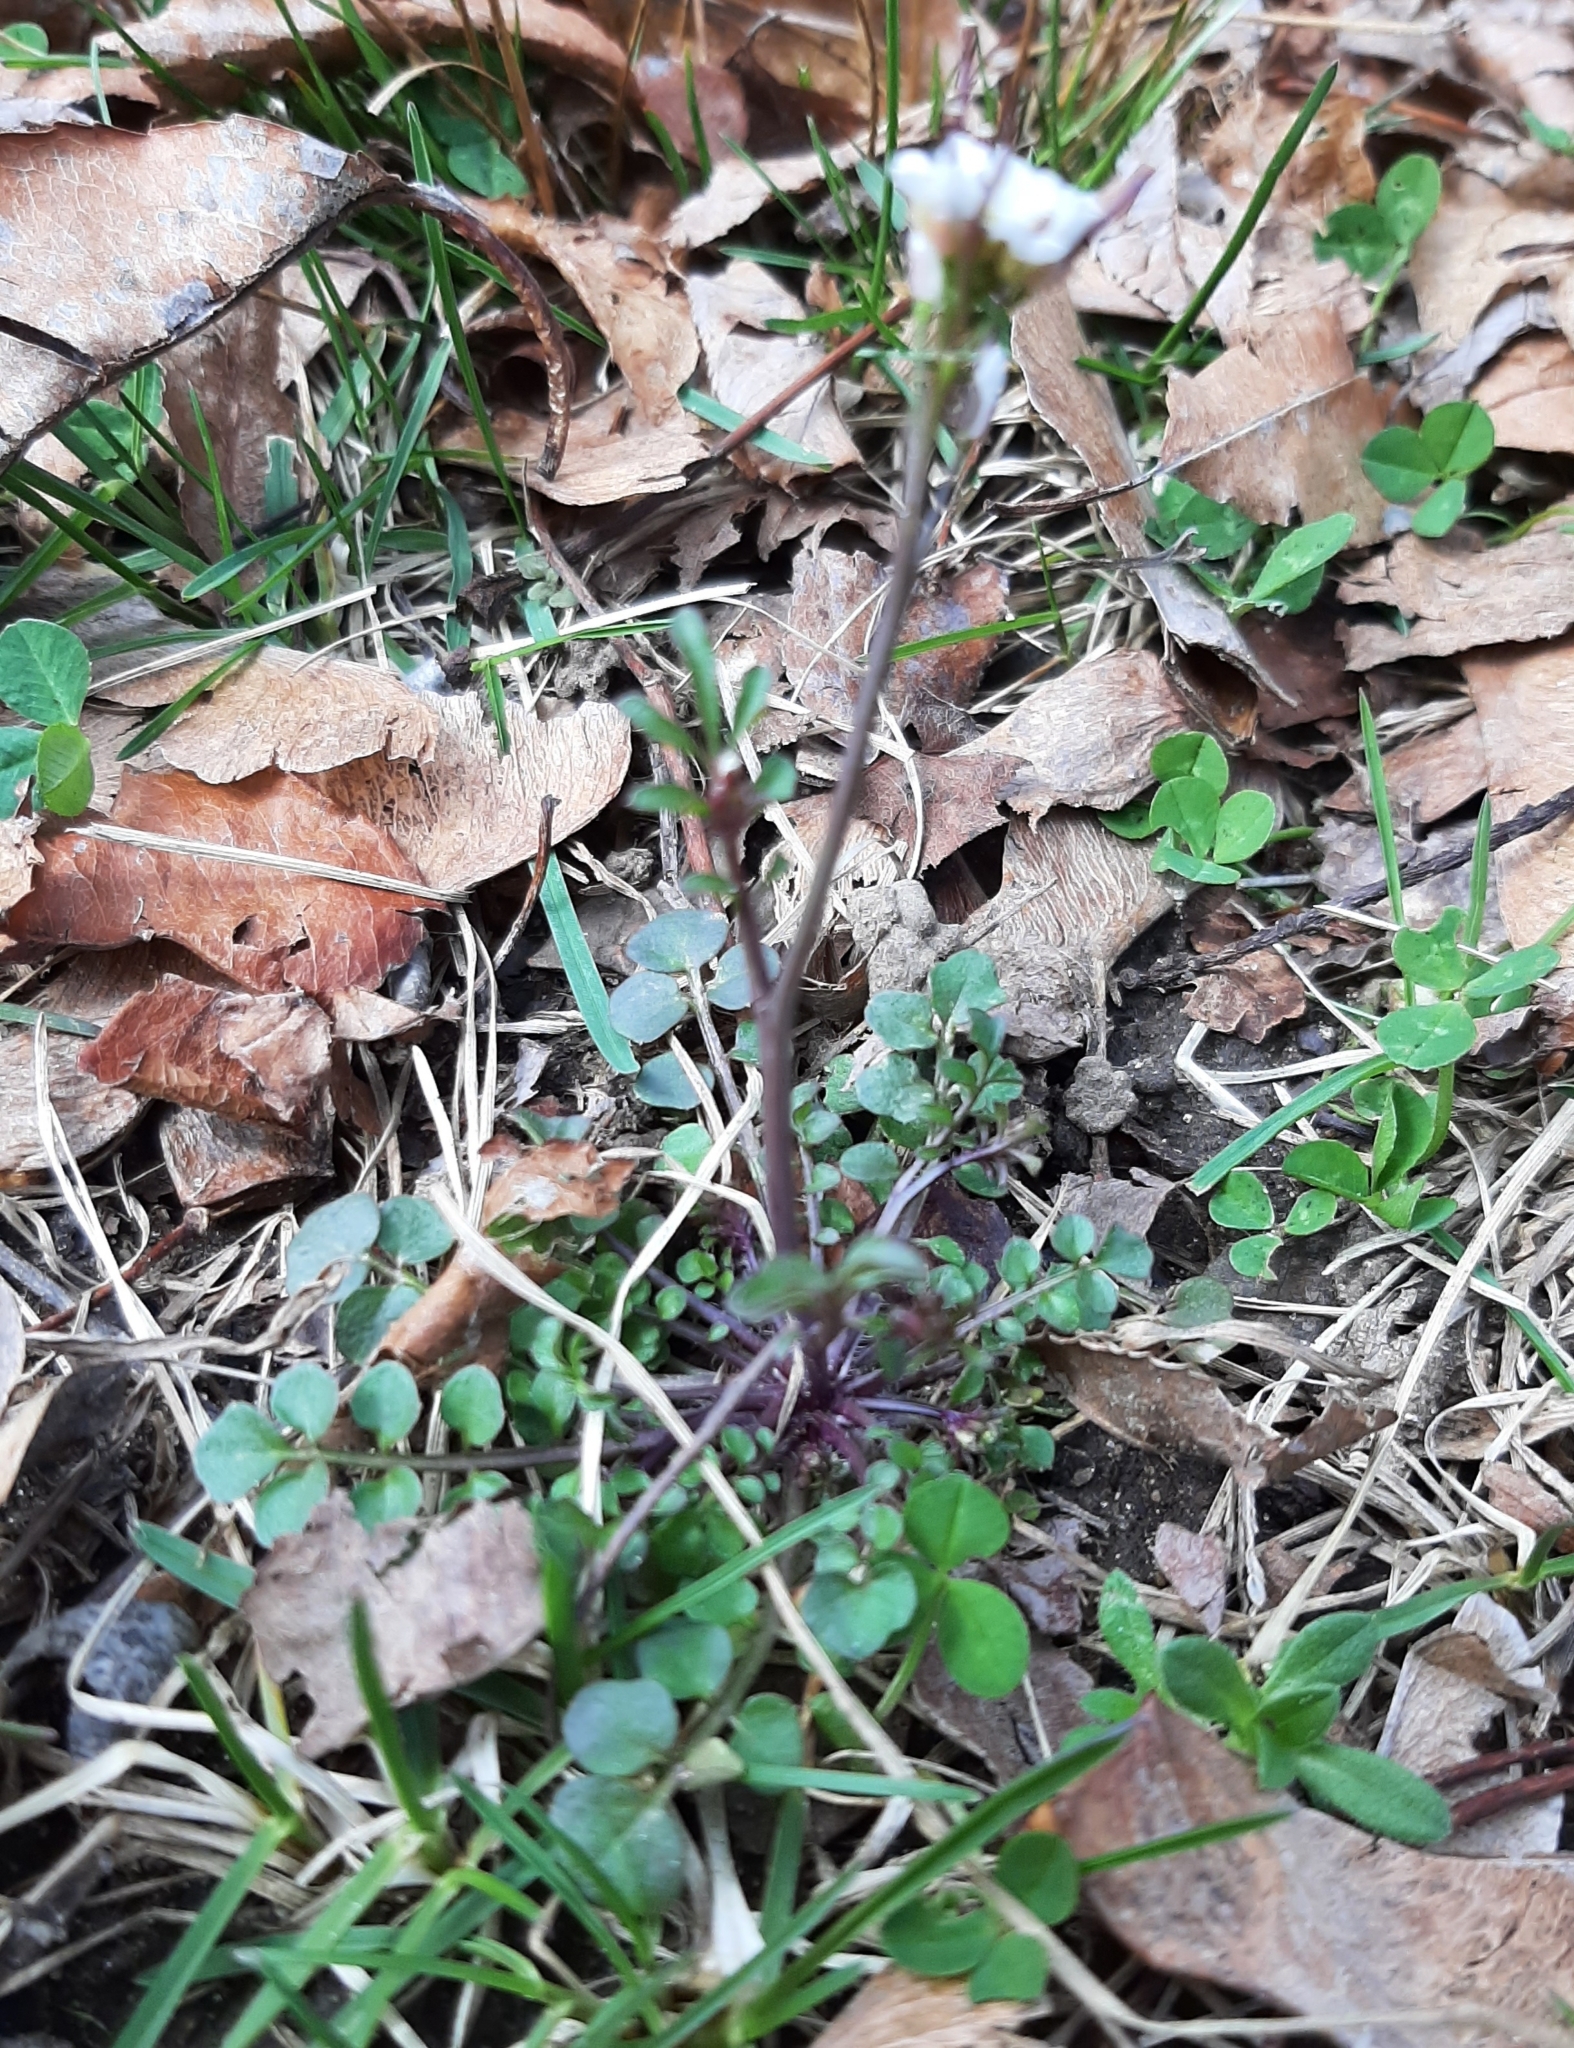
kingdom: Plantae
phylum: Tracheophyta
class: Magnoliopsida
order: Brassicales
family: Brassicaceae
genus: Cardamine
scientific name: Cardamine hirsuta
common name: Hairy bittercress
